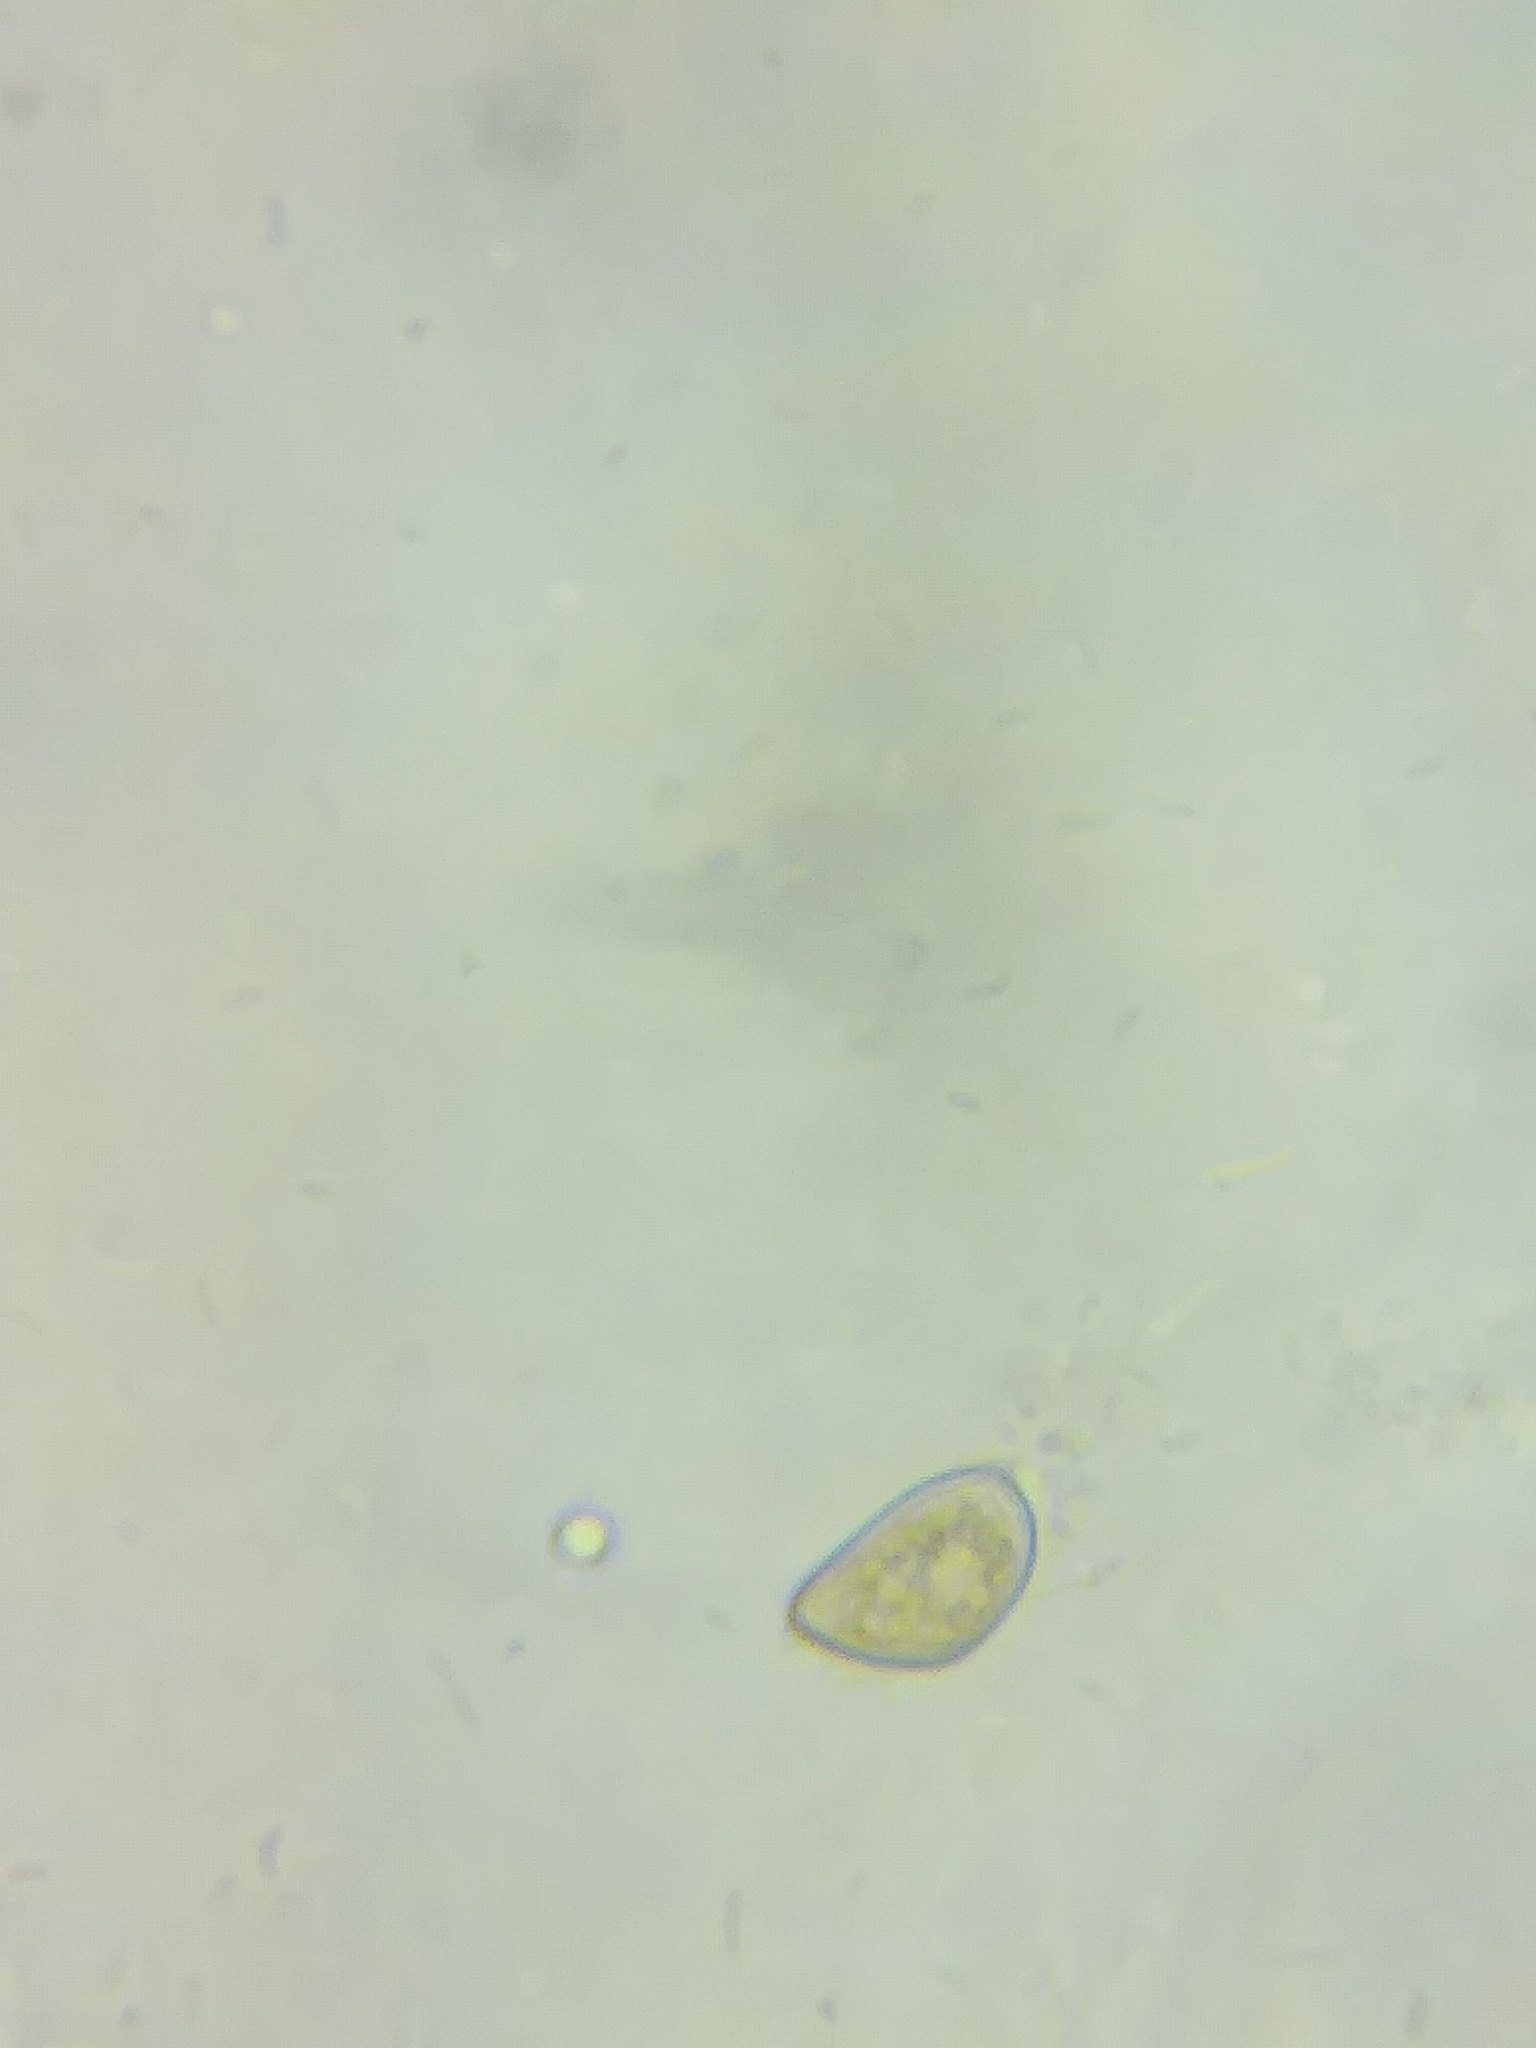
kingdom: Fungi
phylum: Basidiomycota
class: Agaricomycetes
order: Agaricales
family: Inocybaceae
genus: Inocybe
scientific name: Inocybe hystrix
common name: Scaly fibrecap
